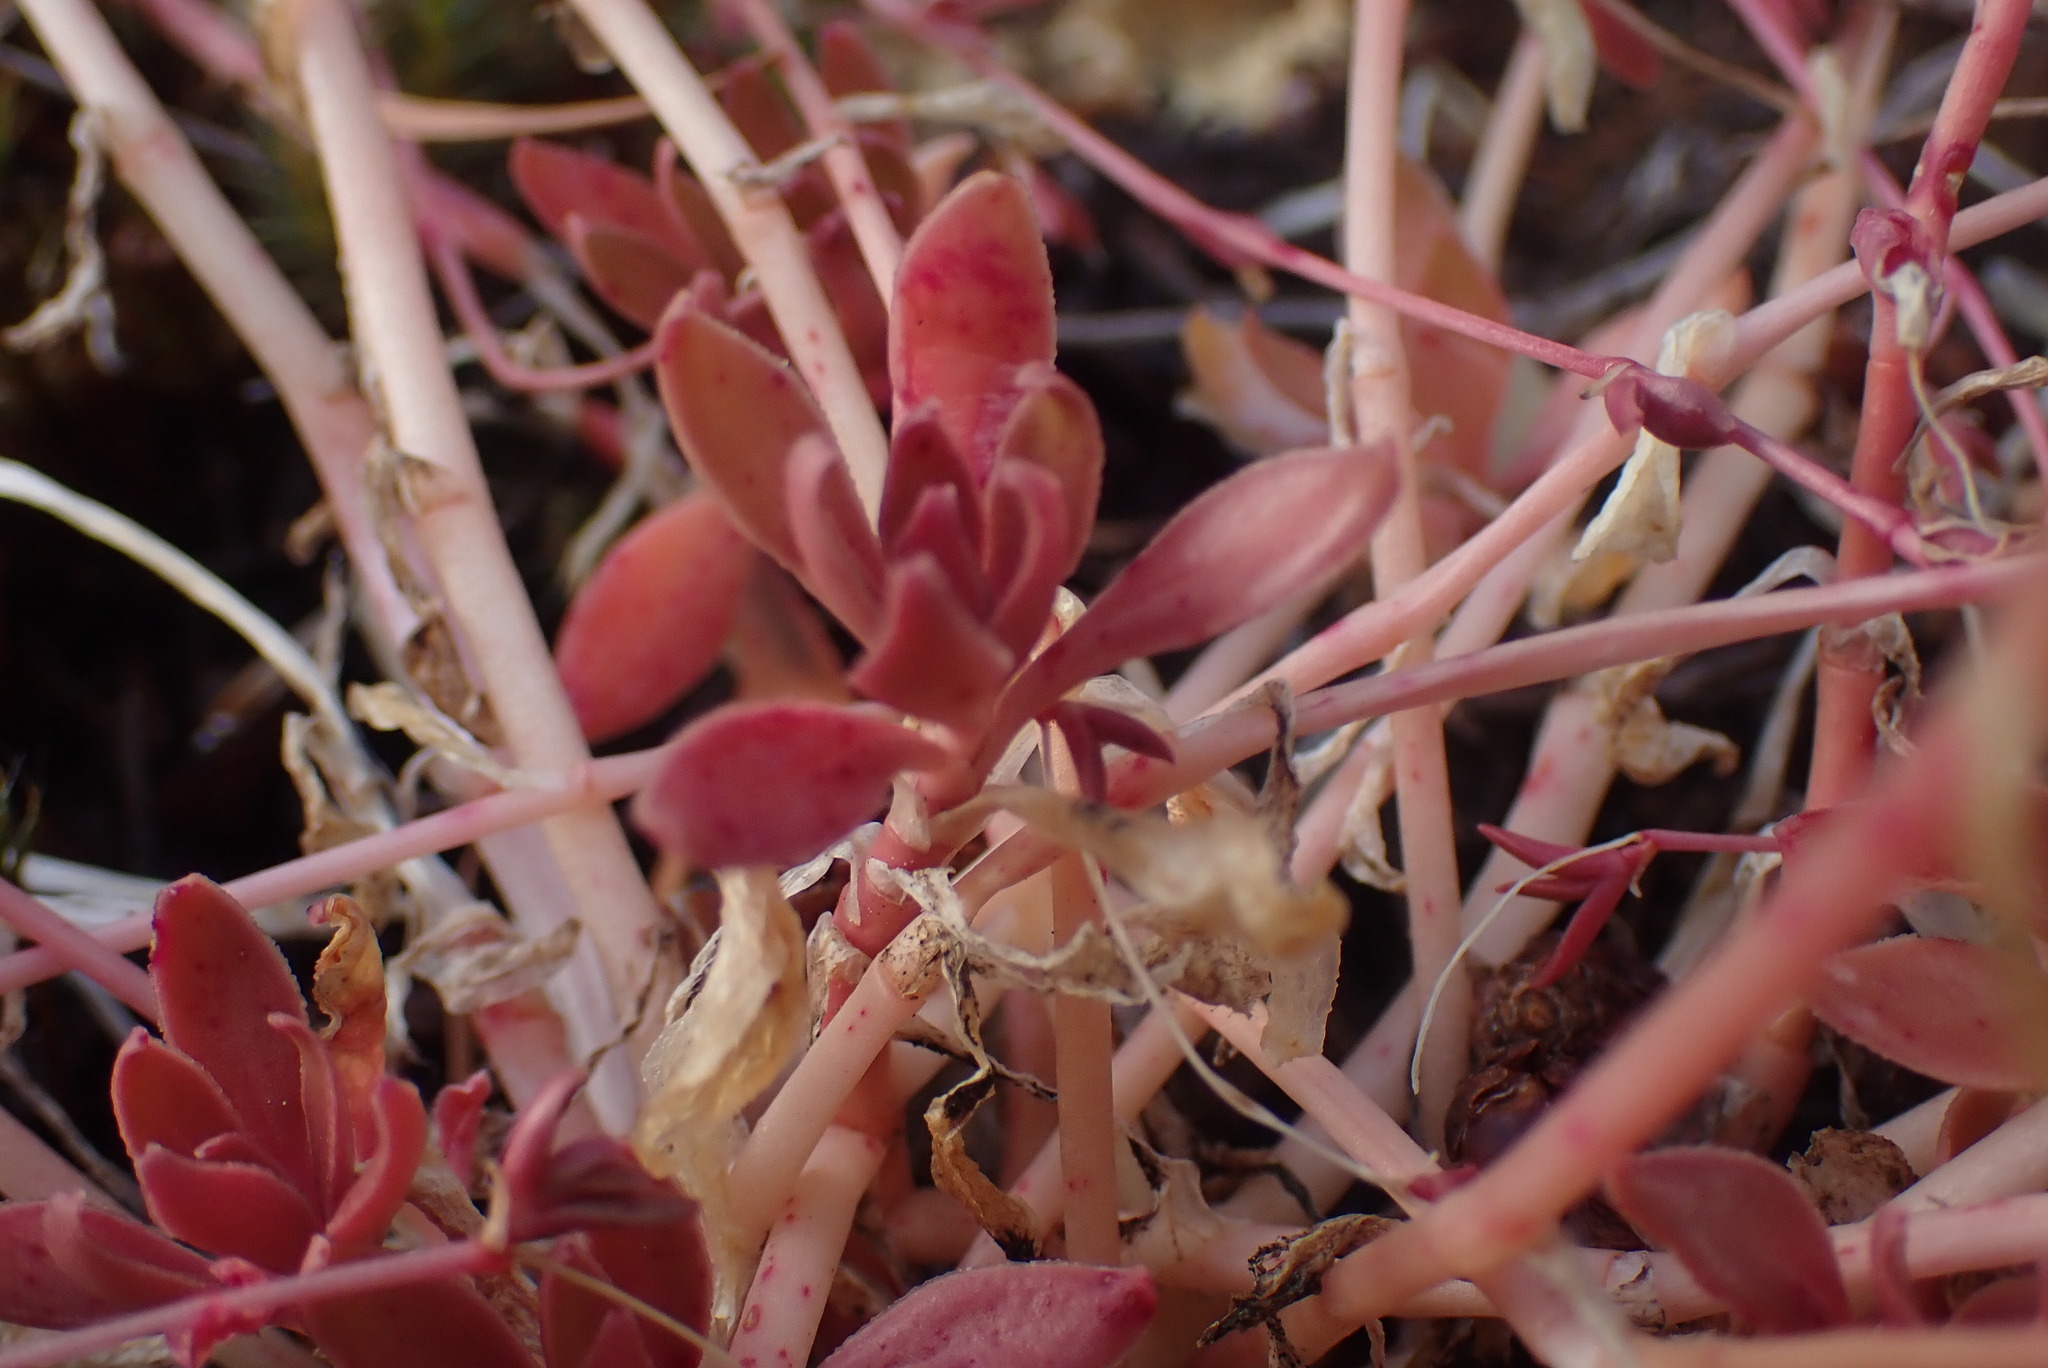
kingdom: Plantae
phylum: Tracheophyta
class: Magnoliopsida
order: Caryophyllales
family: Montiaceae
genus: Montia
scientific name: Montia parvifolia
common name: Small-leaved blinks
